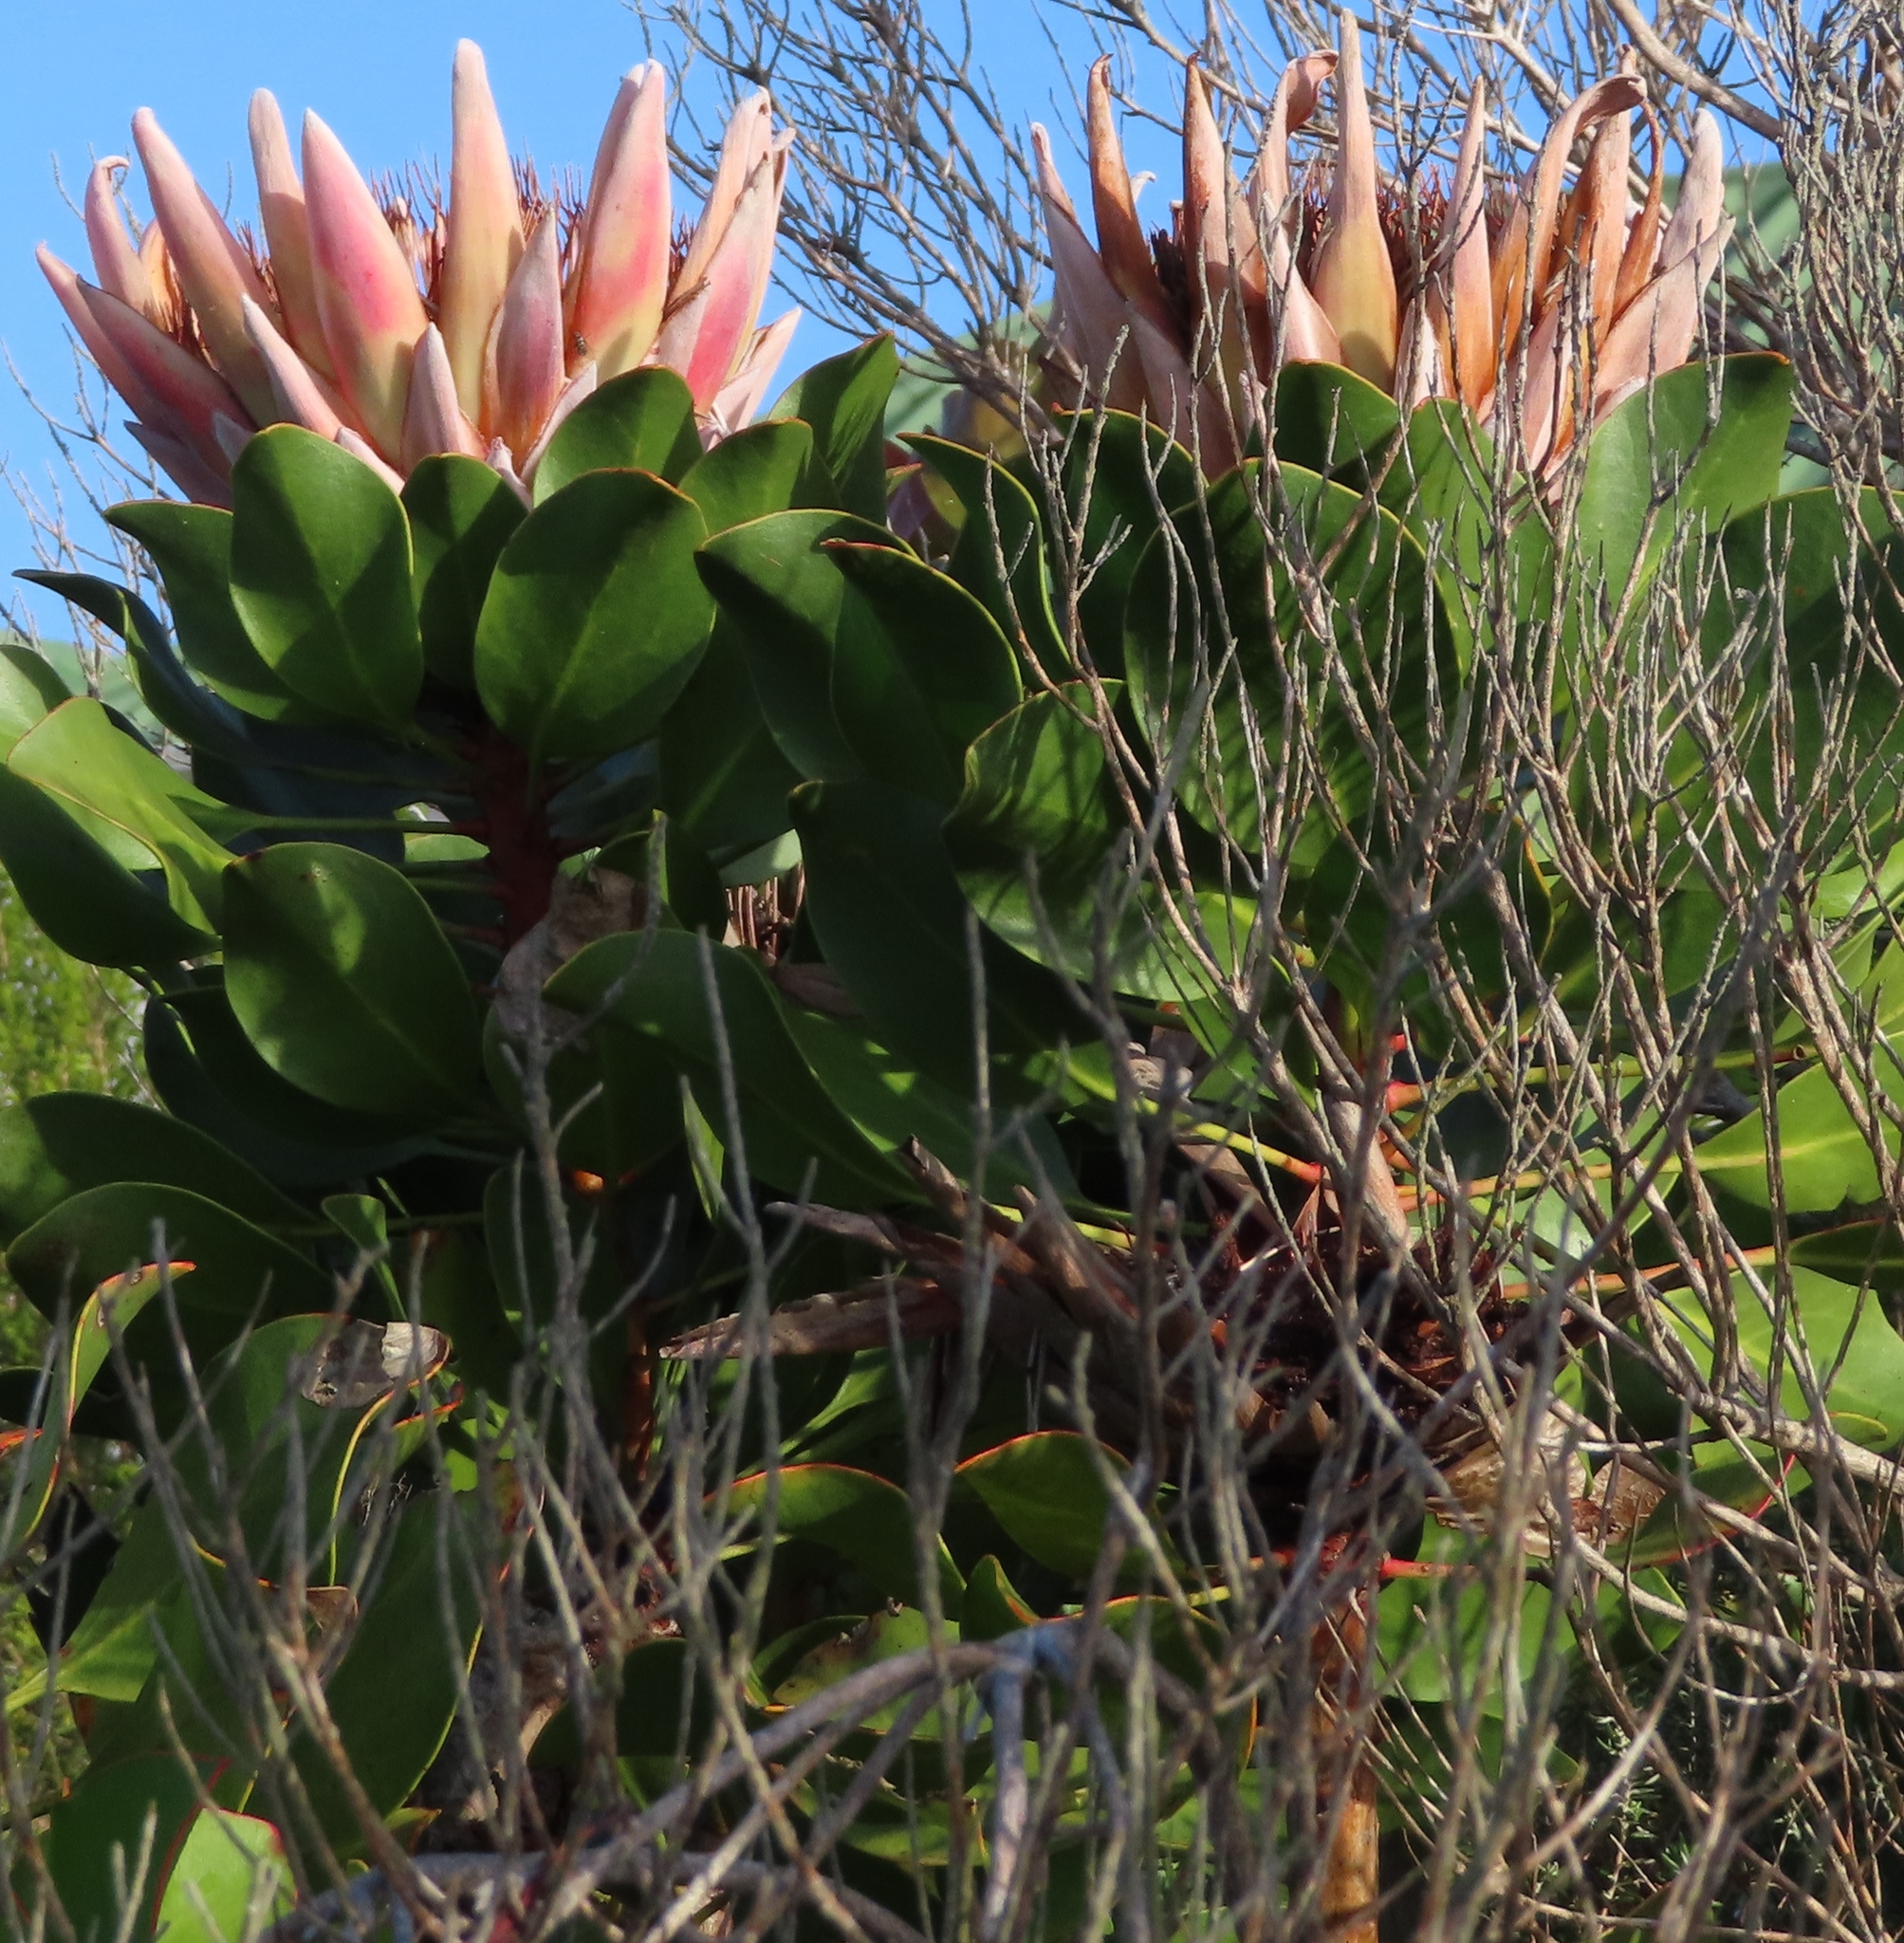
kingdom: Plantae
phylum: Tracheophyta
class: Magnoliopsida
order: Proteales
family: Proteaceae
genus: Protea
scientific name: Protea cynaroides
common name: King protea
